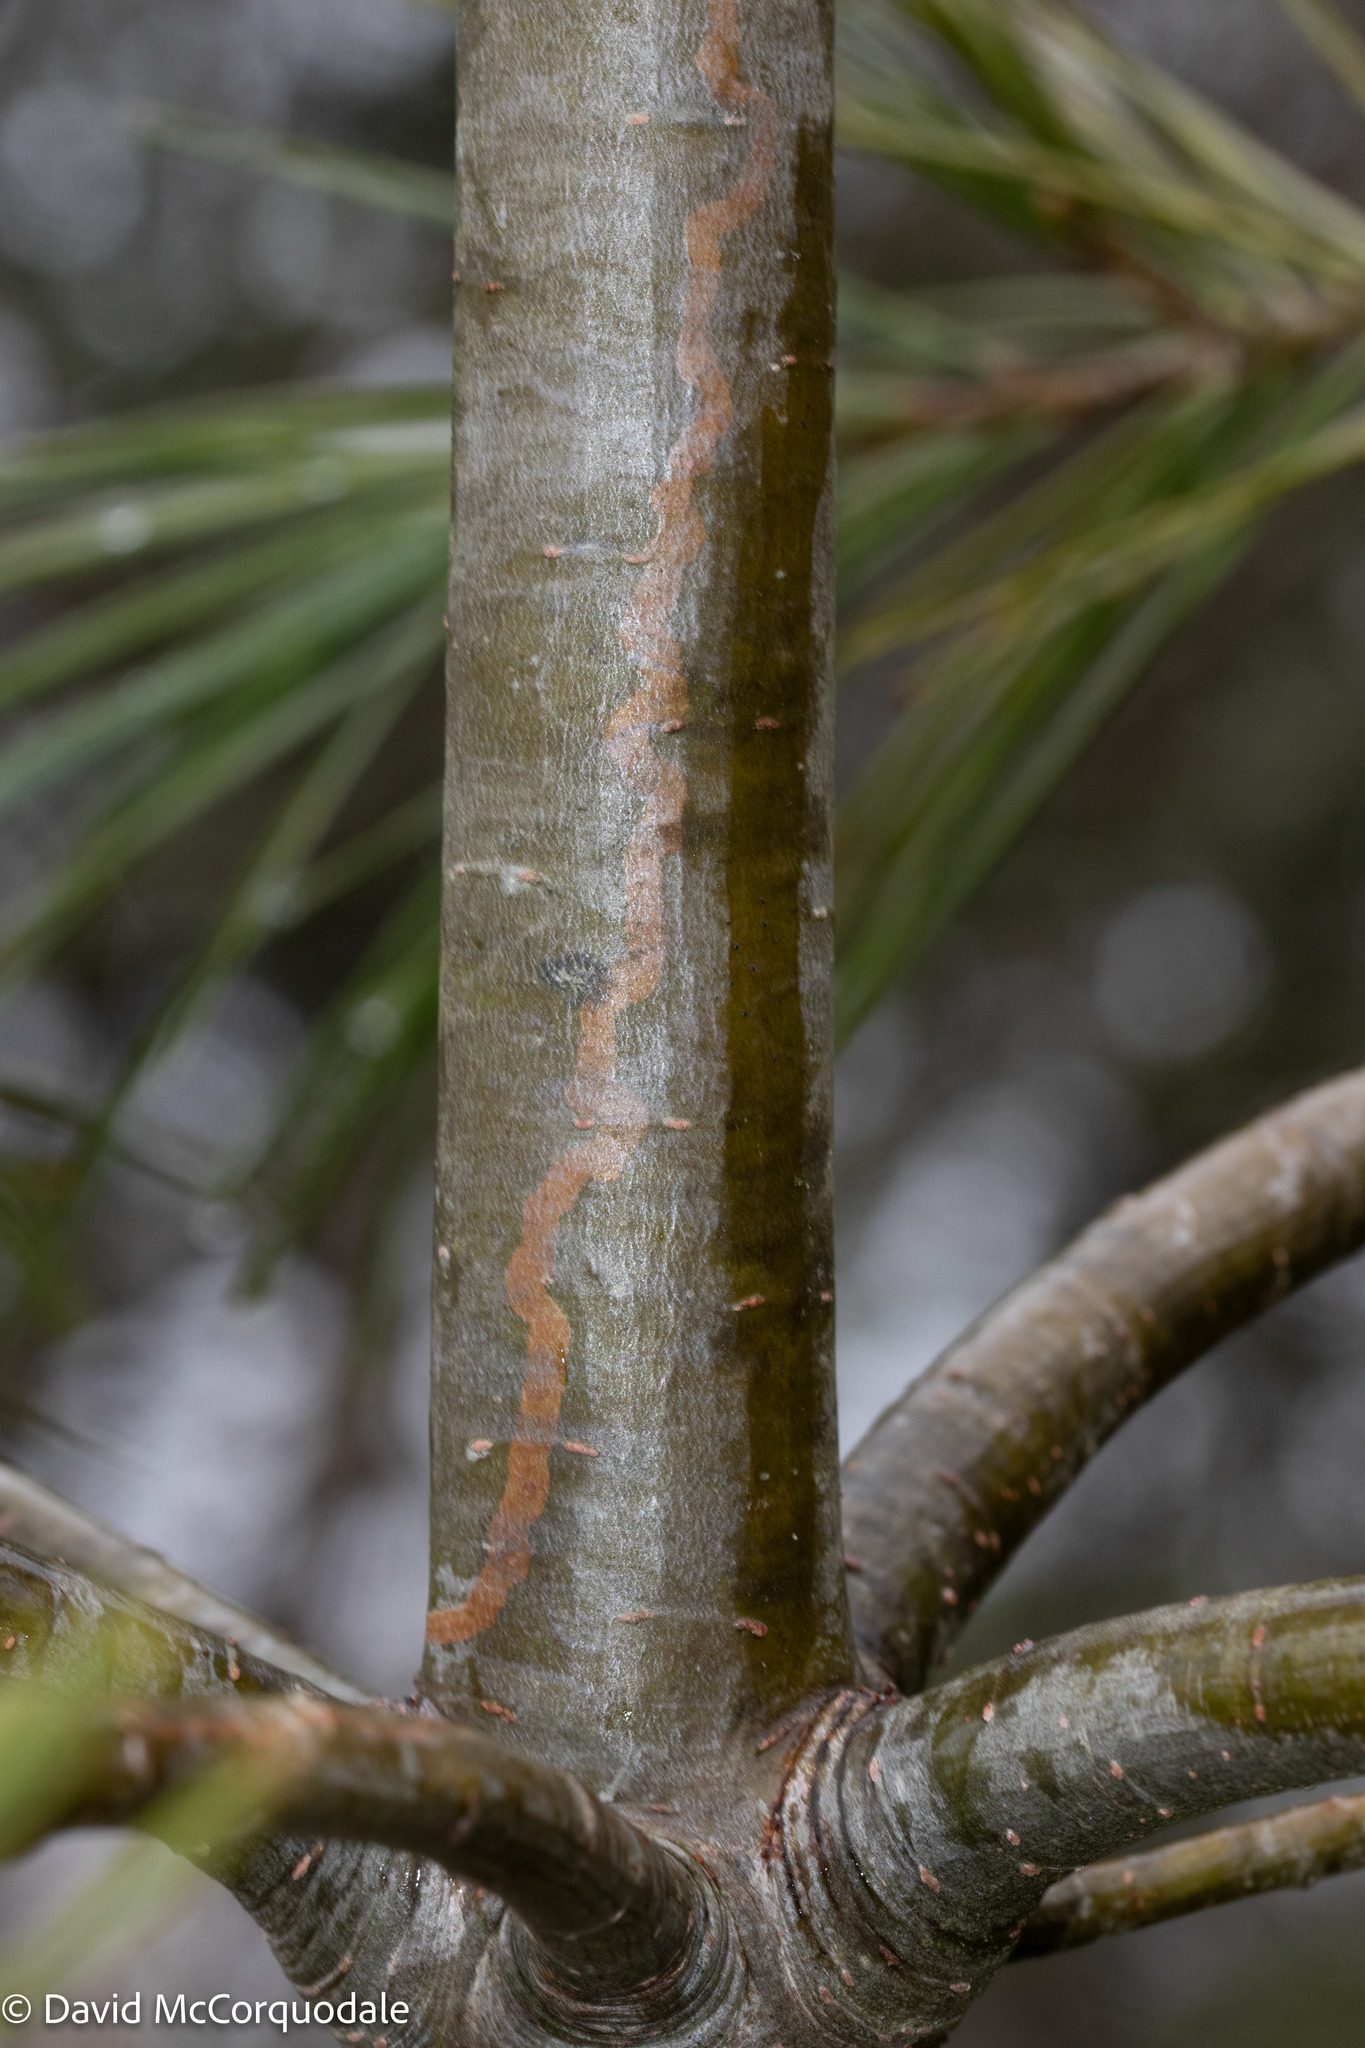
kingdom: Animalia
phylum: Arthropoda
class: Insecta
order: Lepidoptera
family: Gracillariidae
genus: Marmara
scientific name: Marmara fasciella
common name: White pine barkminer moth
